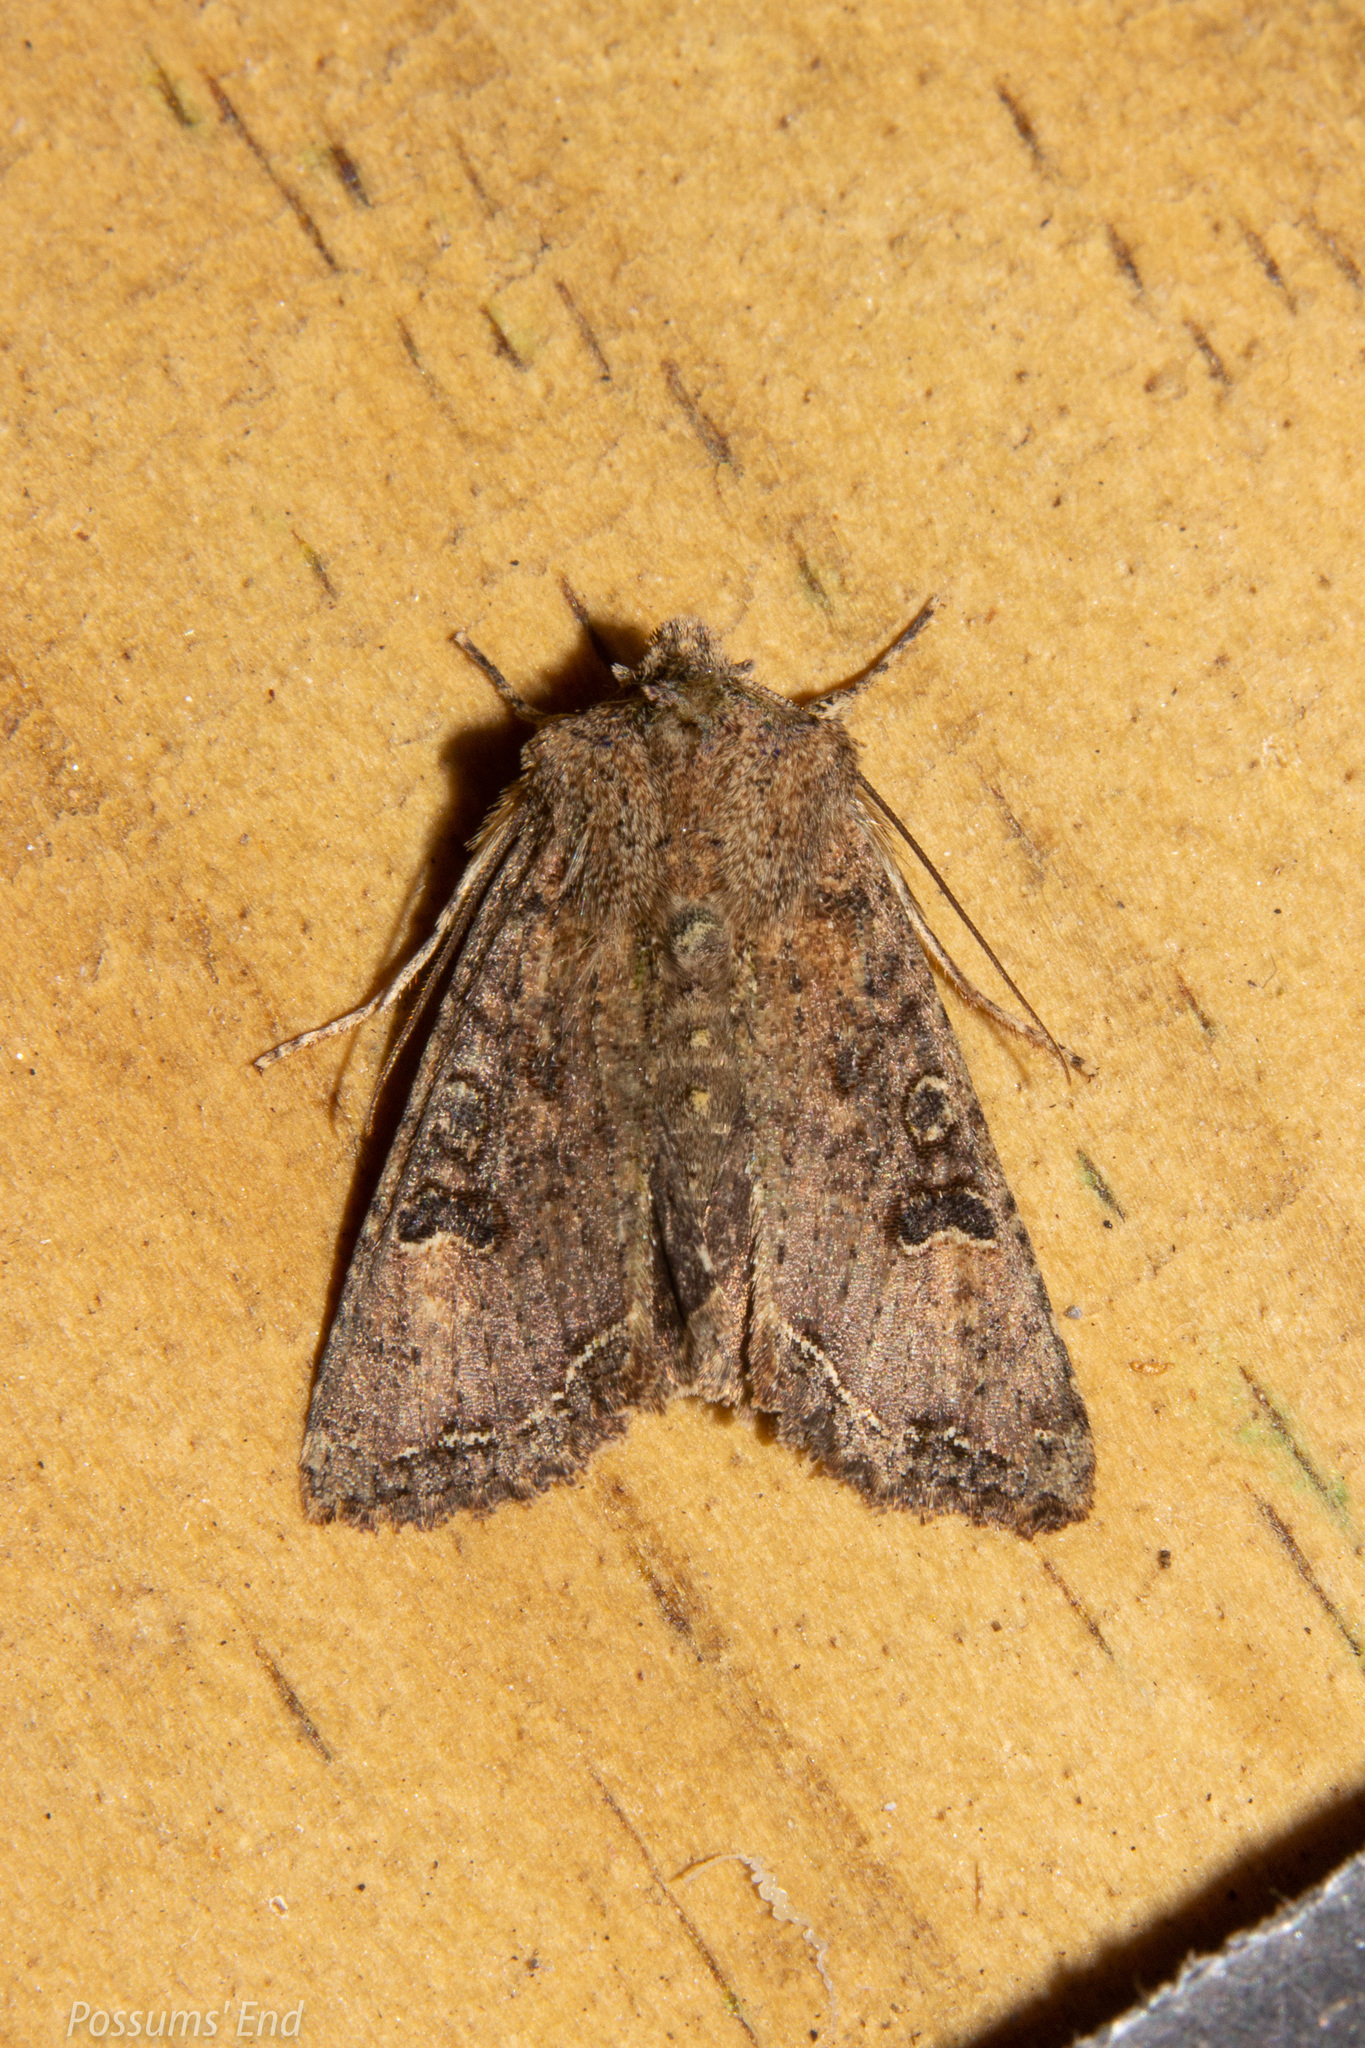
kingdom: Animalia
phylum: Arthropoda
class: Insecta
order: Lepidoptera
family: Noctuidae
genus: Meterana
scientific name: Meterana inchoata
